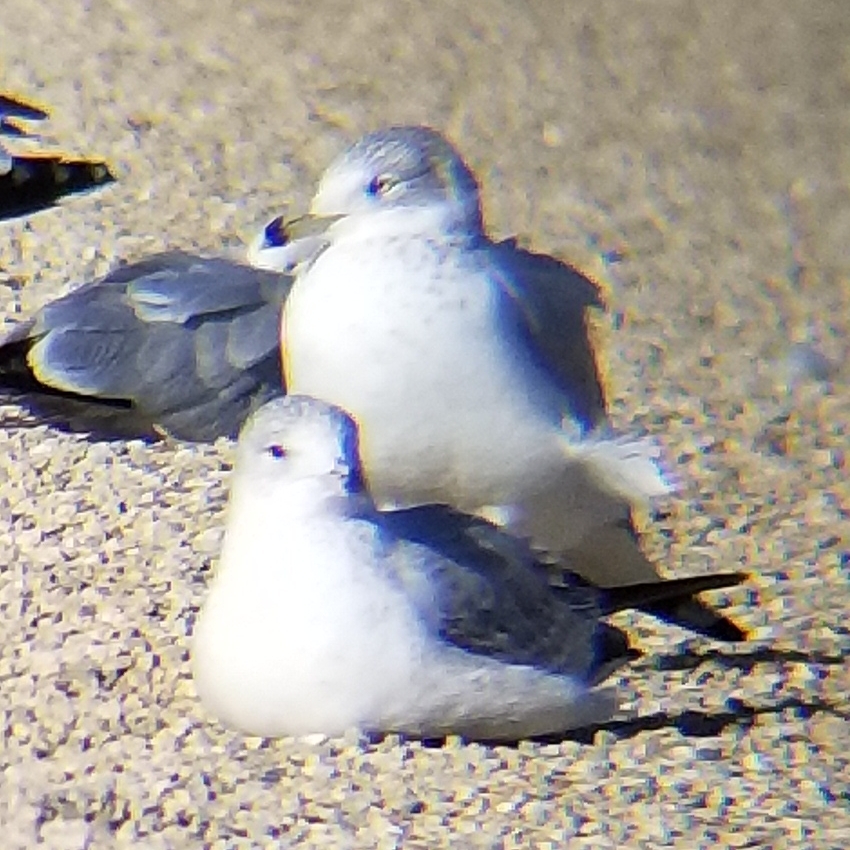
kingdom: Animalia
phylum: Chordata
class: Aves
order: Charadriiformes
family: Laridae
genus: Larus
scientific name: Larus delawarensis
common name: Ring-billed gull
